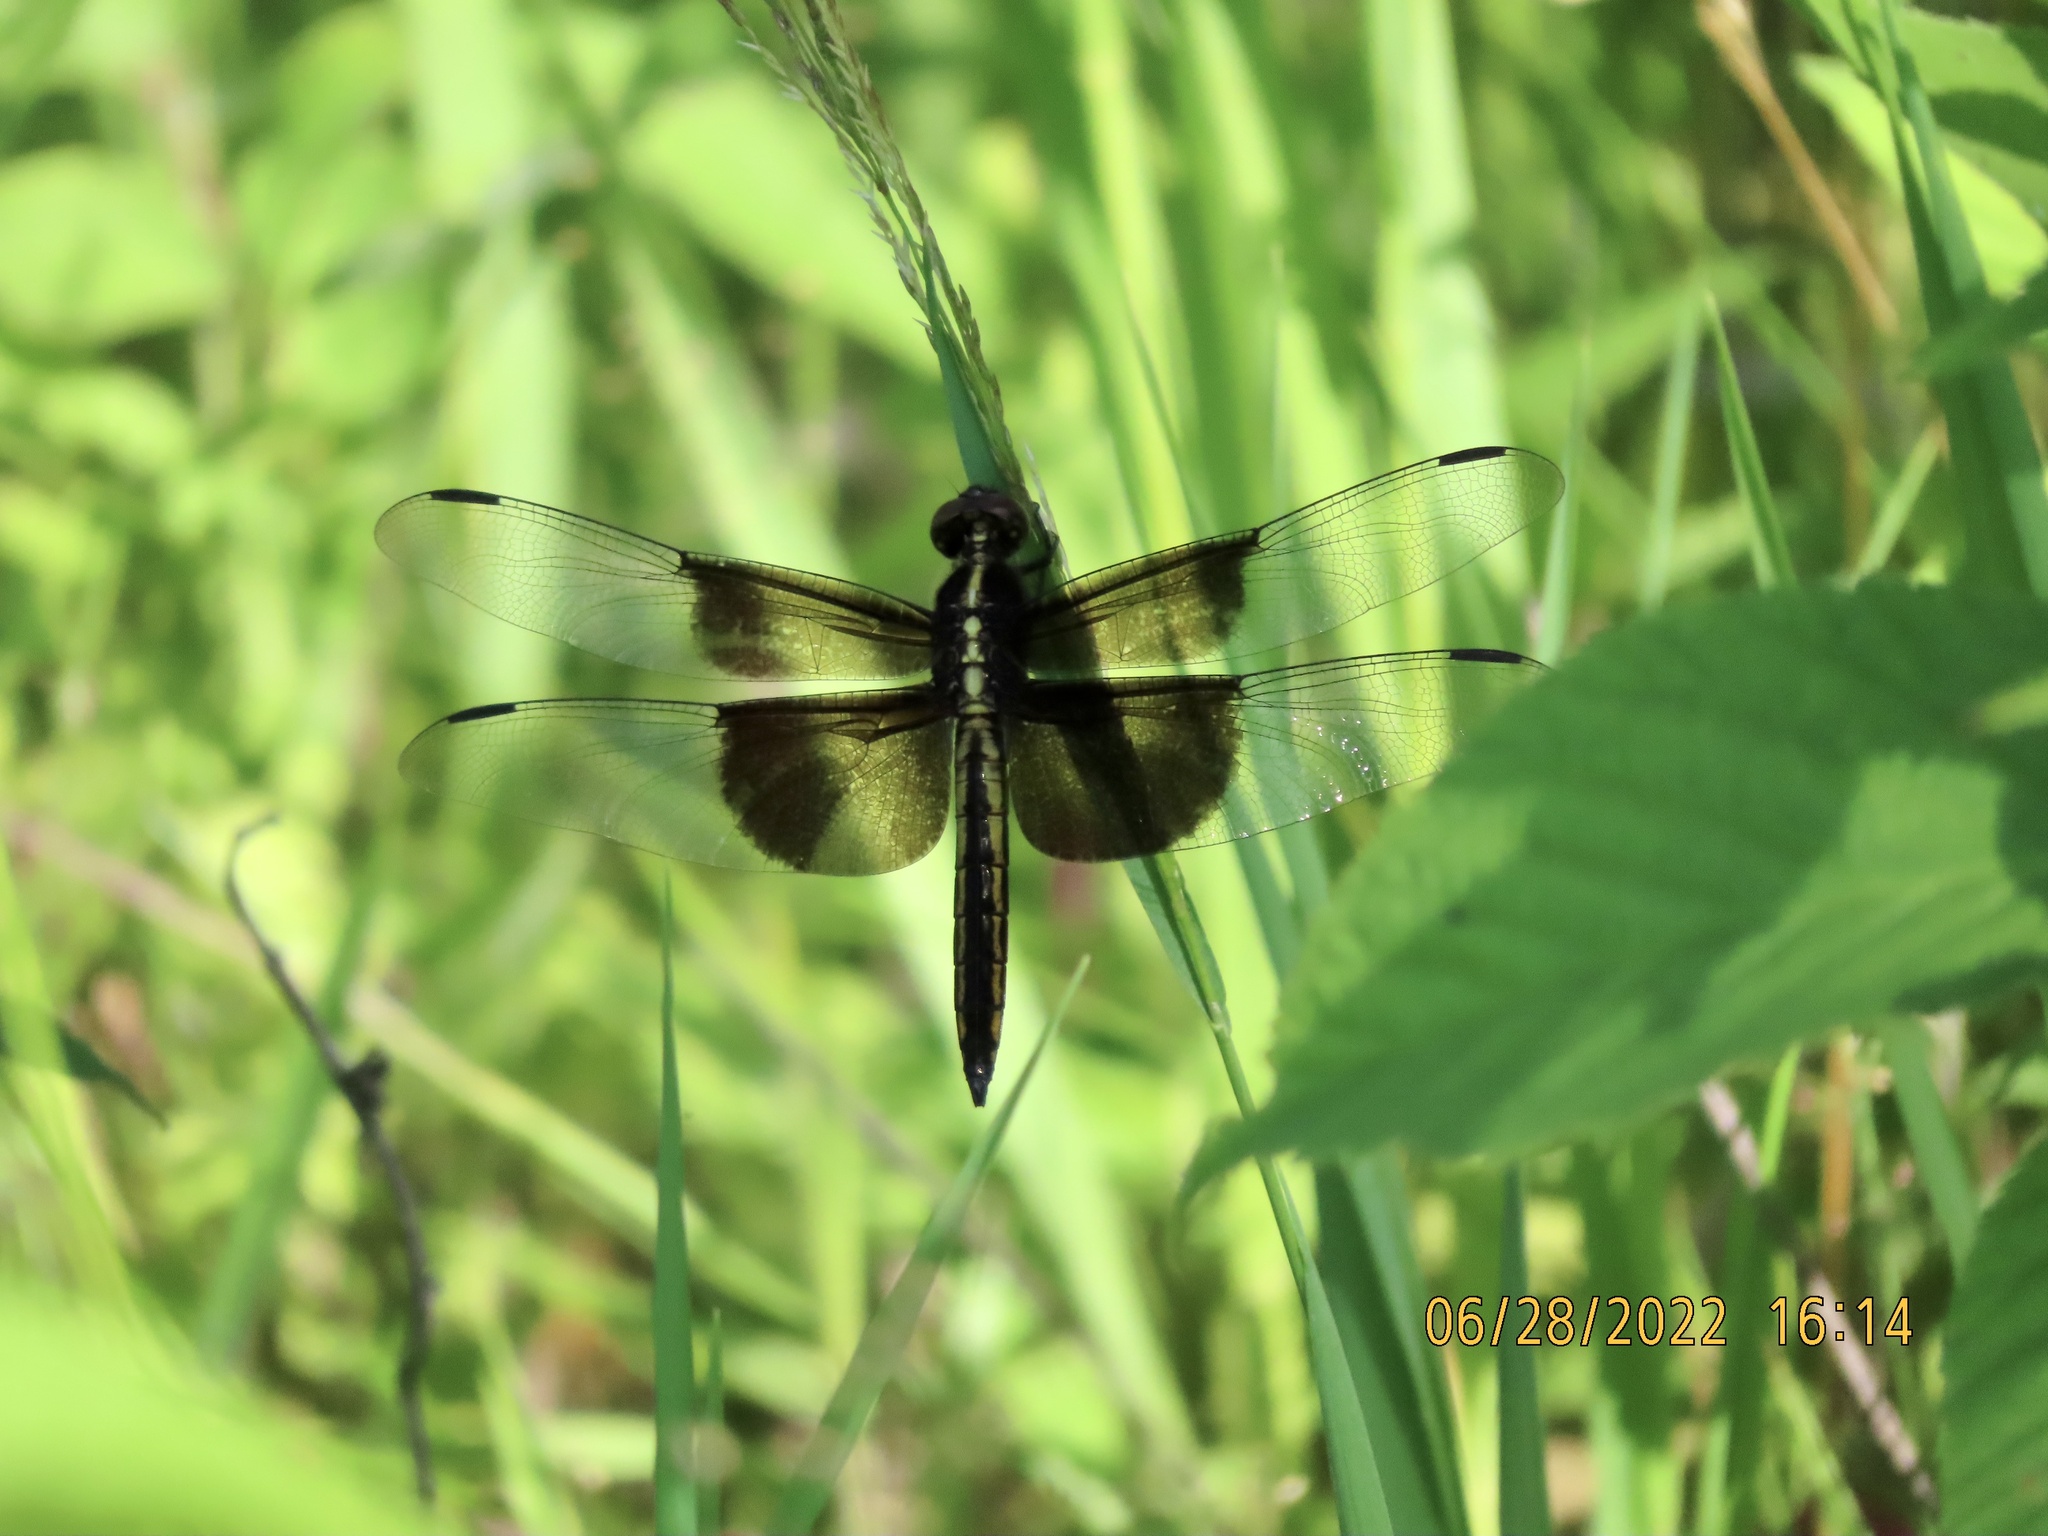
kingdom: Animalia
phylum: Arthropoda
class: Insecta
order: Odonata
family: Libellulidae
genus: Libellula
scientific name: Libellula luctuosa
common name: Widow skimmer
